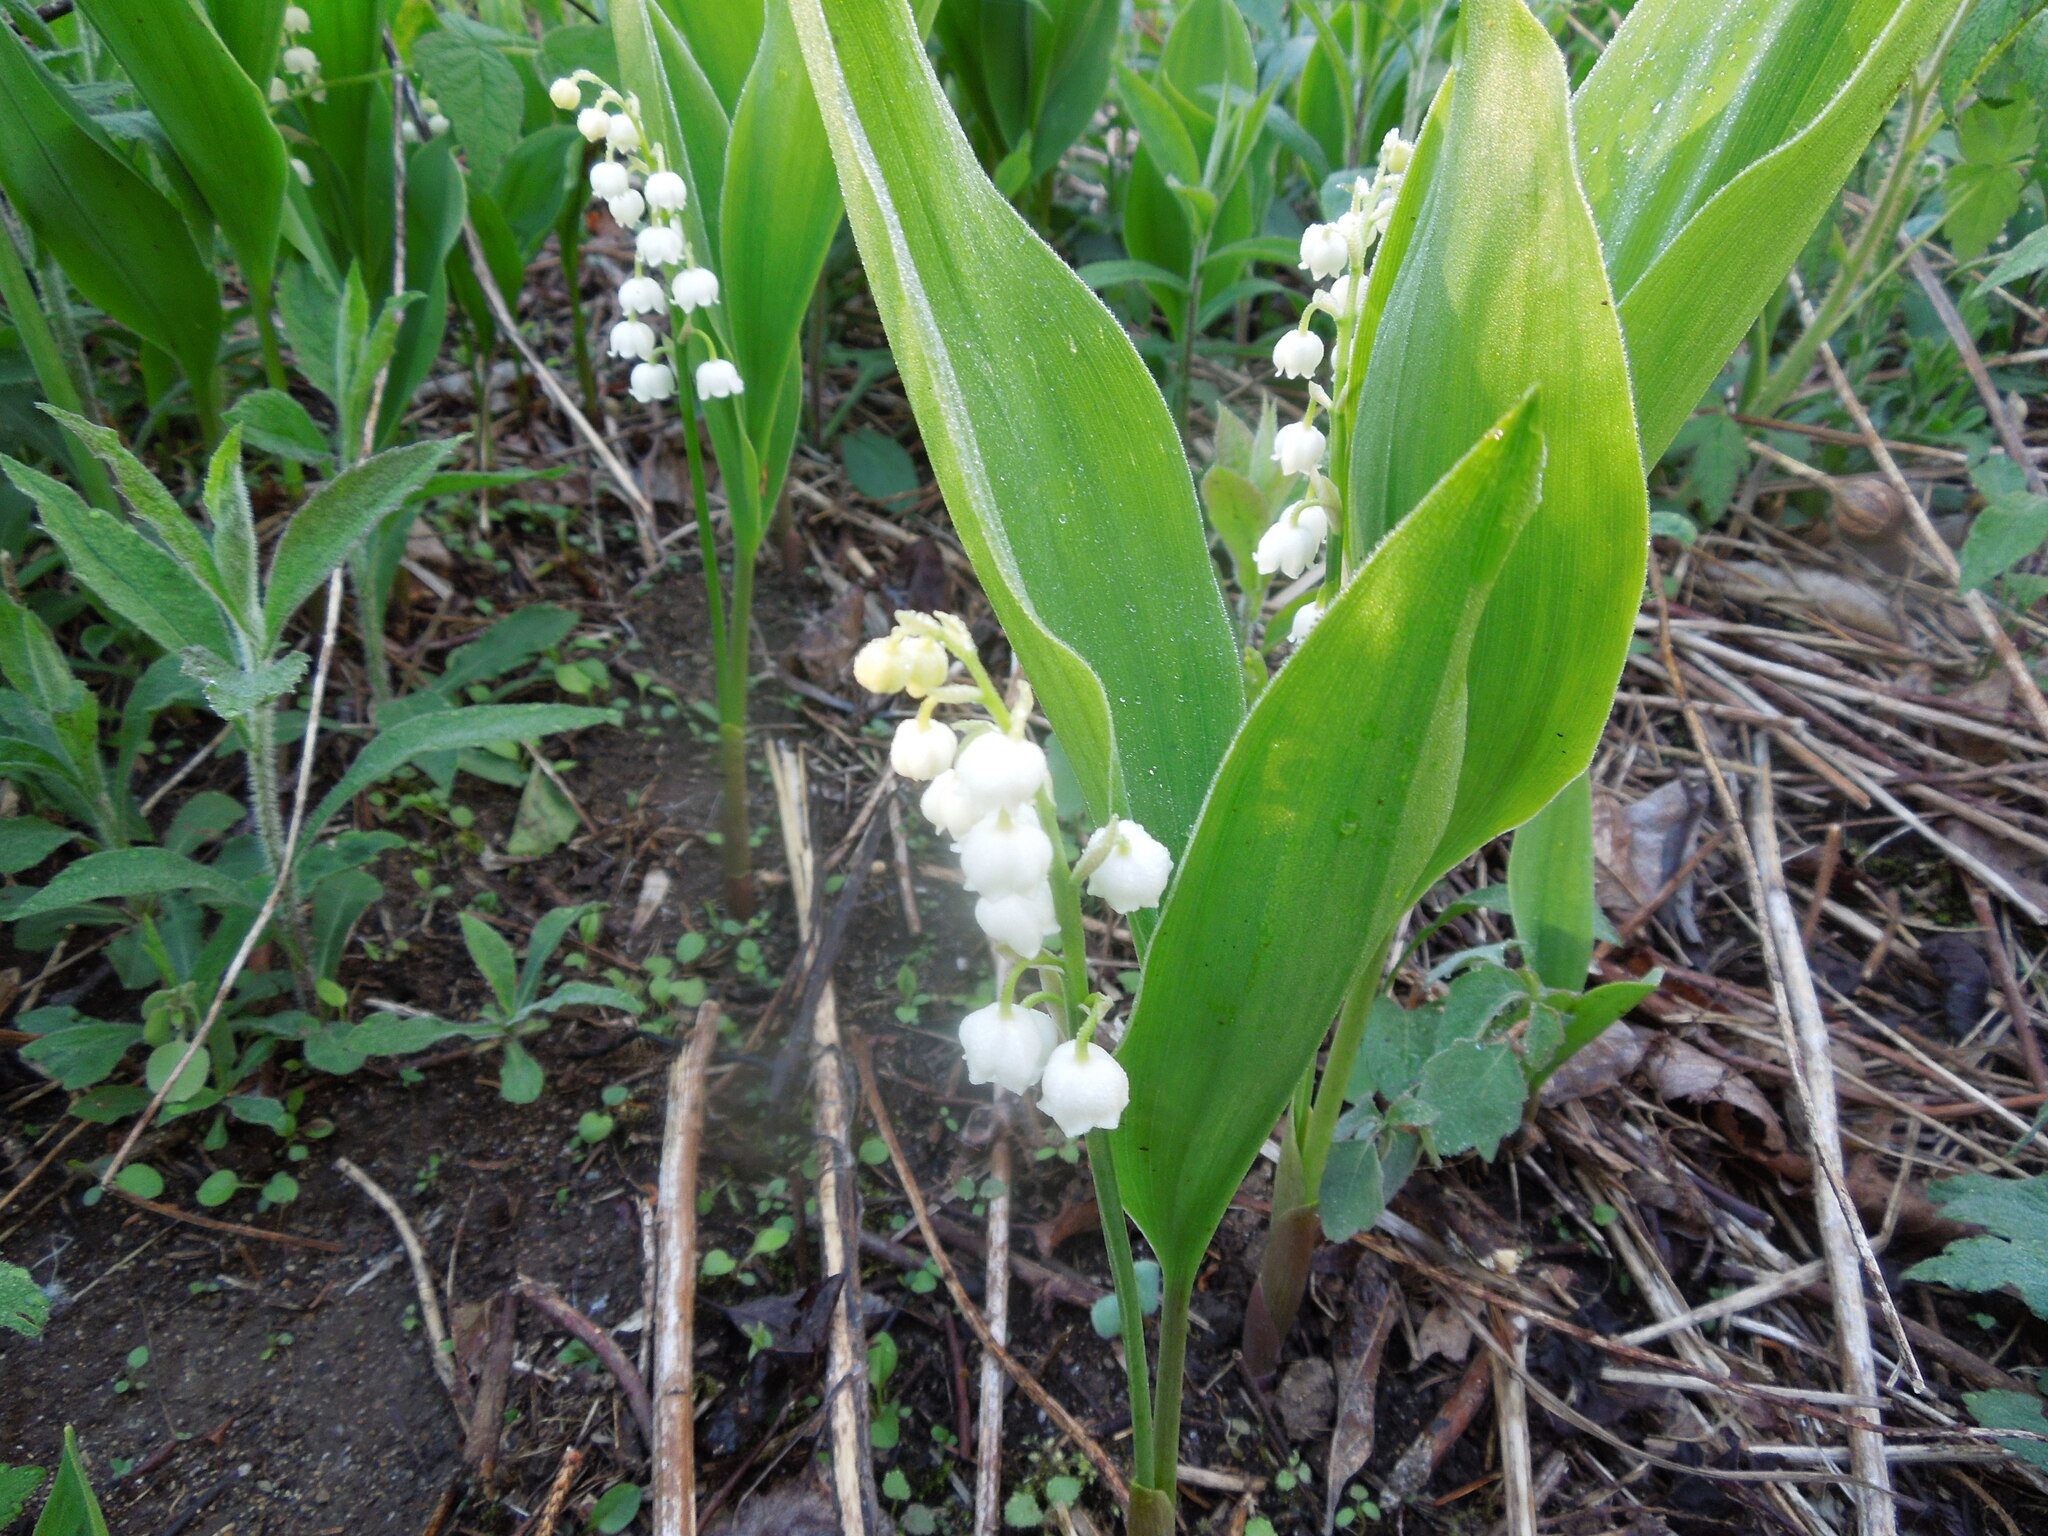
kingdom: Plantae
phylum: Tracheophyta
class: Liliopsida
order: Asparagales
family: Asparagaceae
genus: Convallaria
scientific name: Convallaria majalis
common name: Lily-of-the-valley
